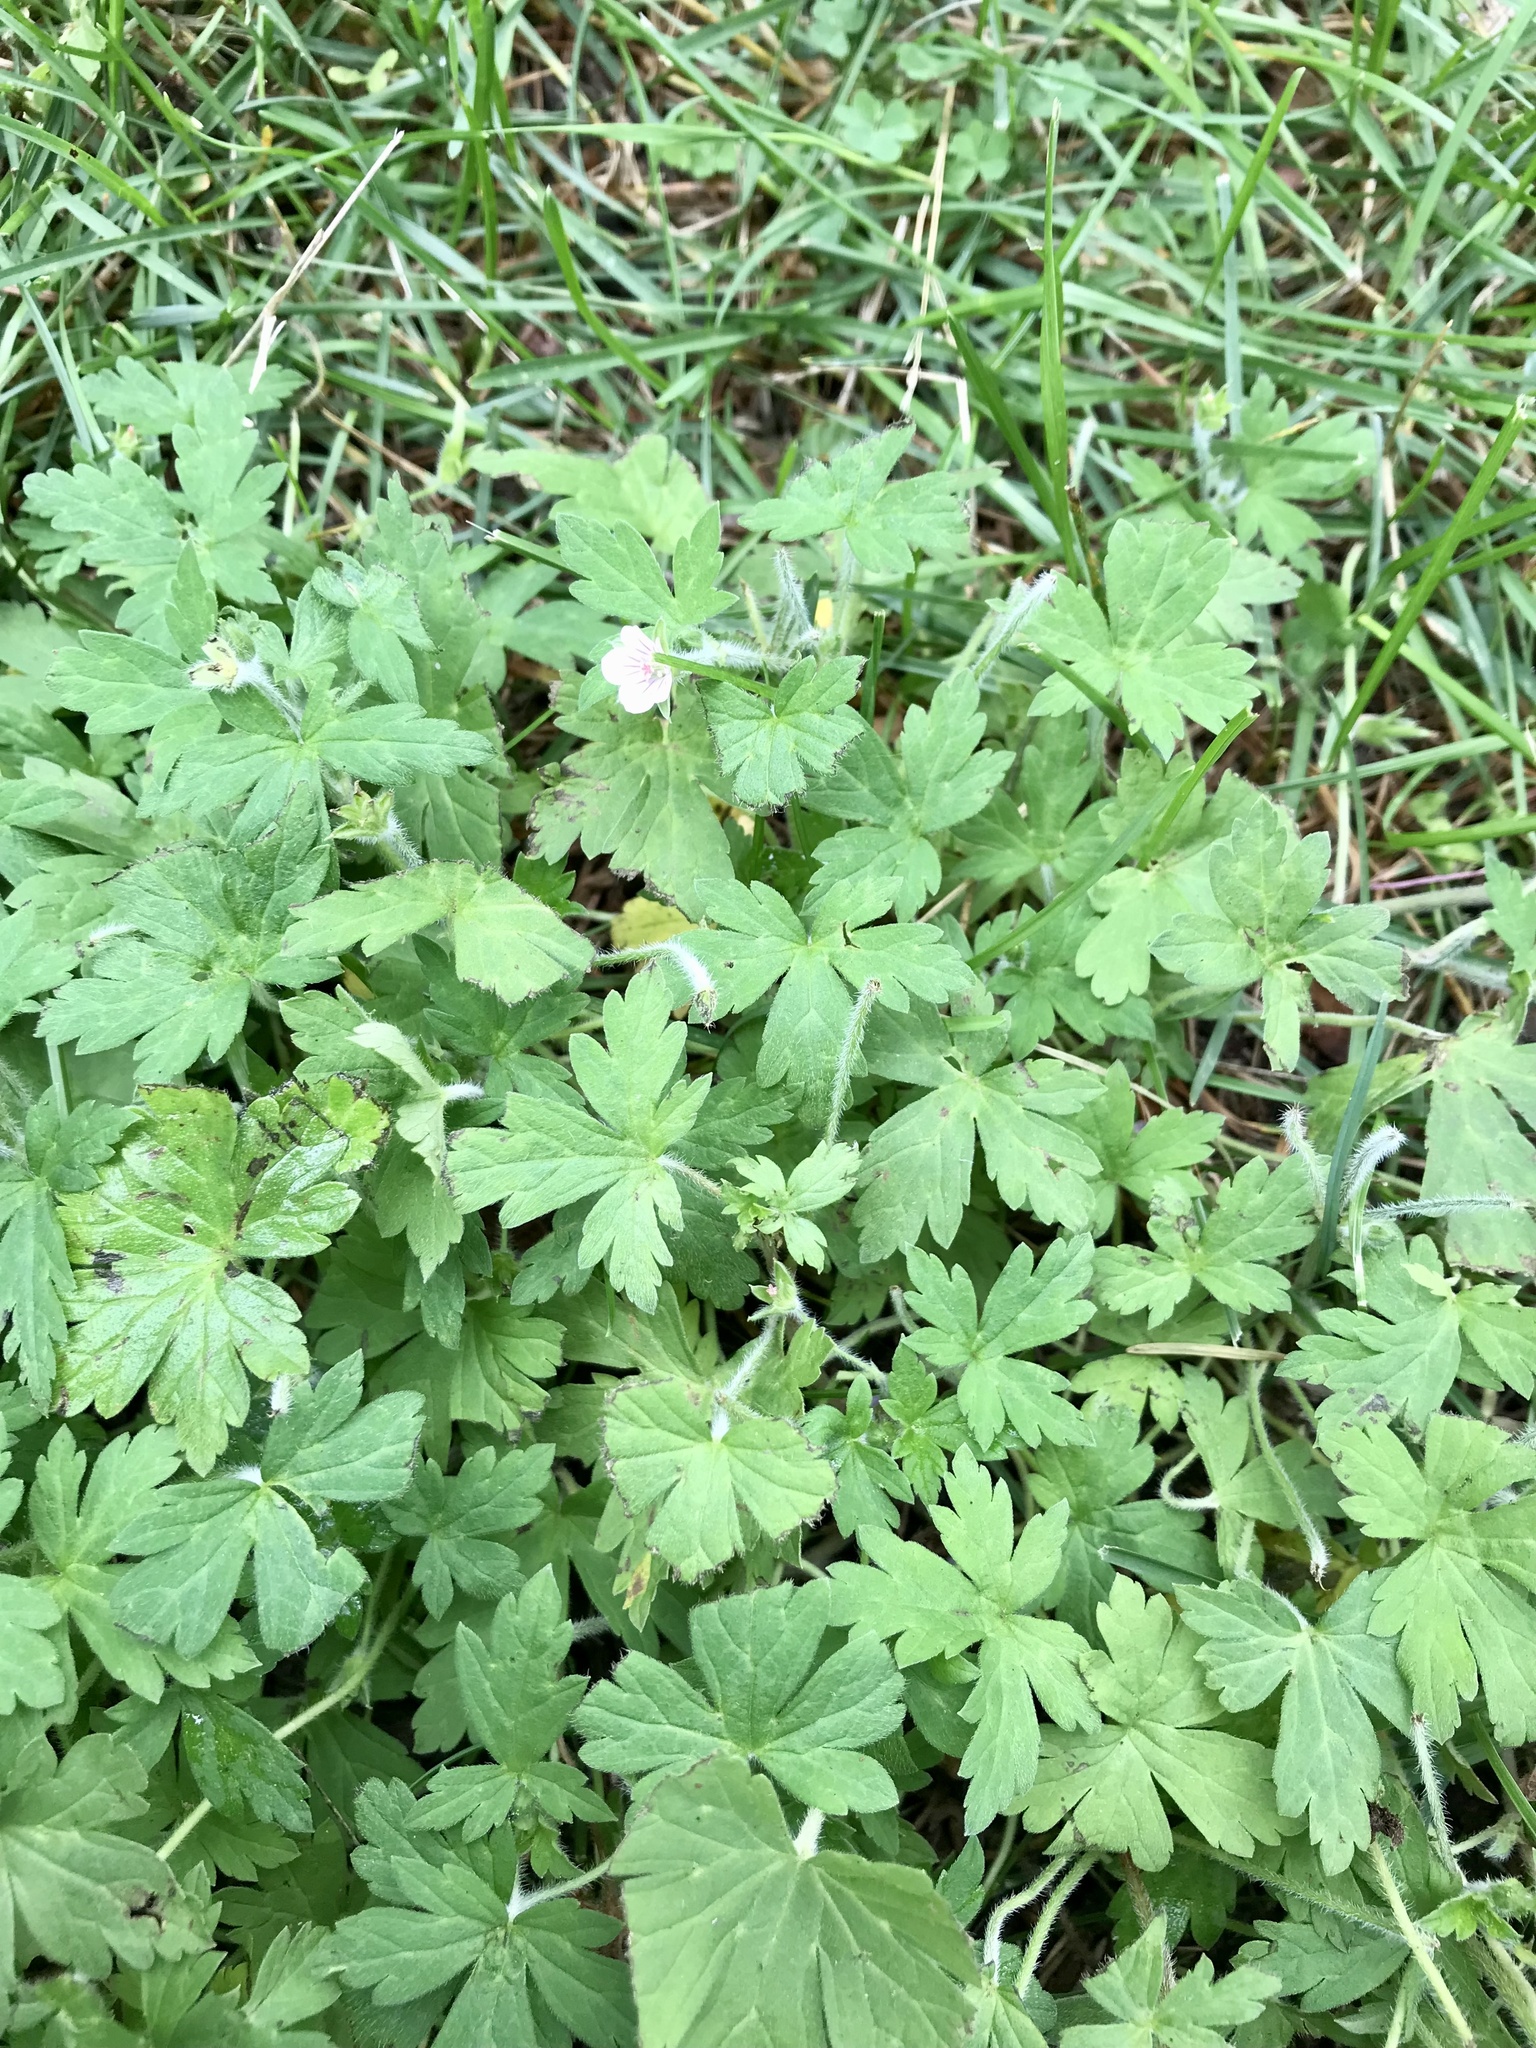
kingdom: Plantae
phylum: Tracheophyta
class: Magnoliopsida
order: Geraniales
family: Geraniaceae
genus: Geranium
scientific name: Geranium sibiricum
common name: Siberian crane's-bill
